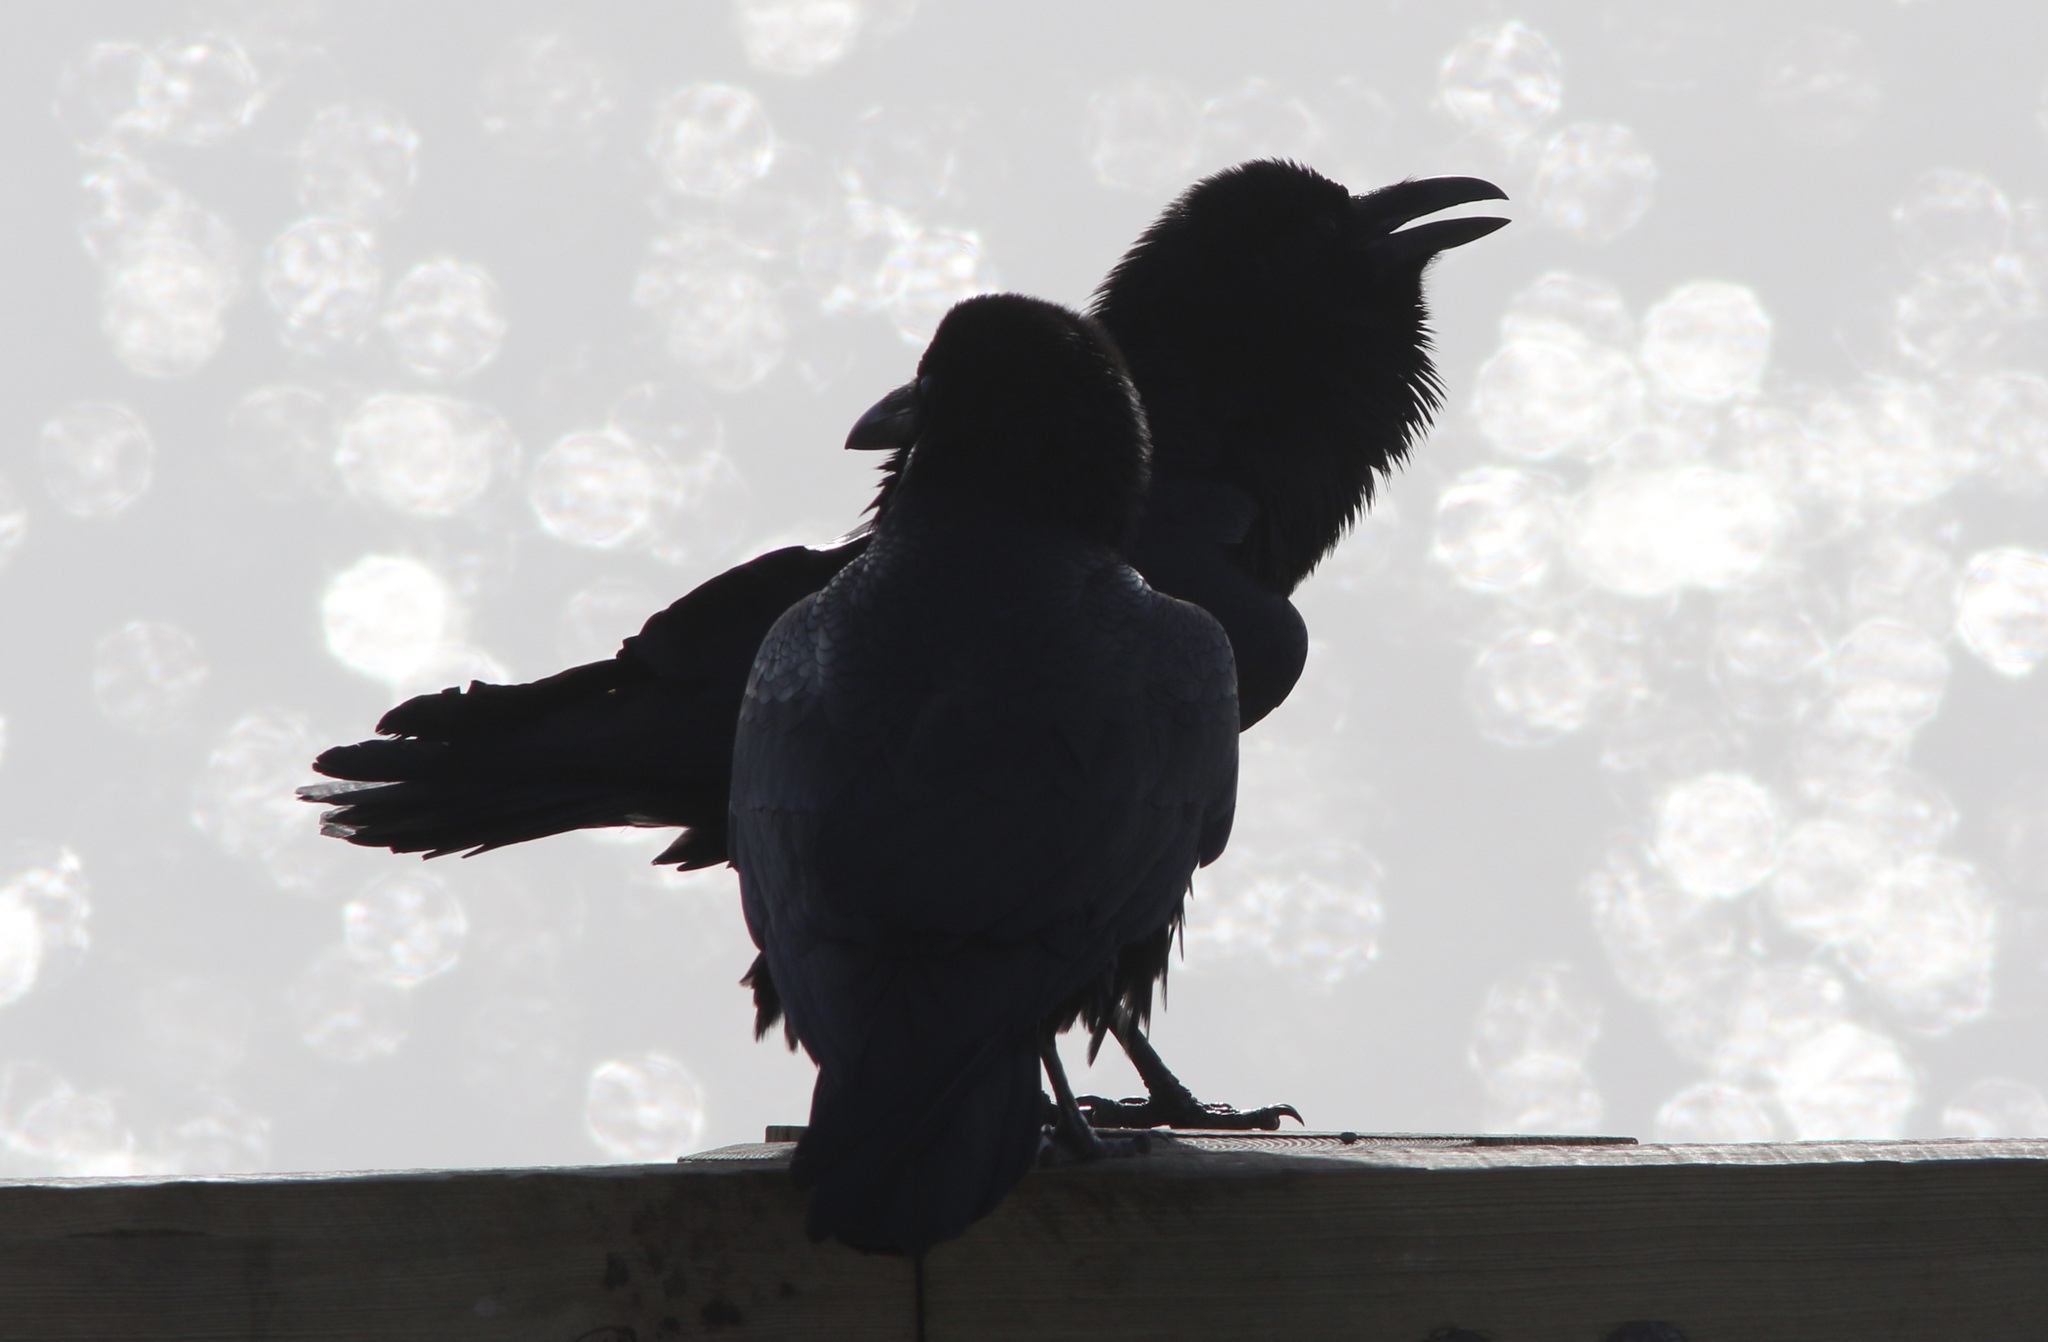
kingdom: Animalia
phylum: Chordata
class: Aves
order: Passeriformes
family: Corvidae
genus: Corvus
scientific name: Corvus corax
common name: Common raven
